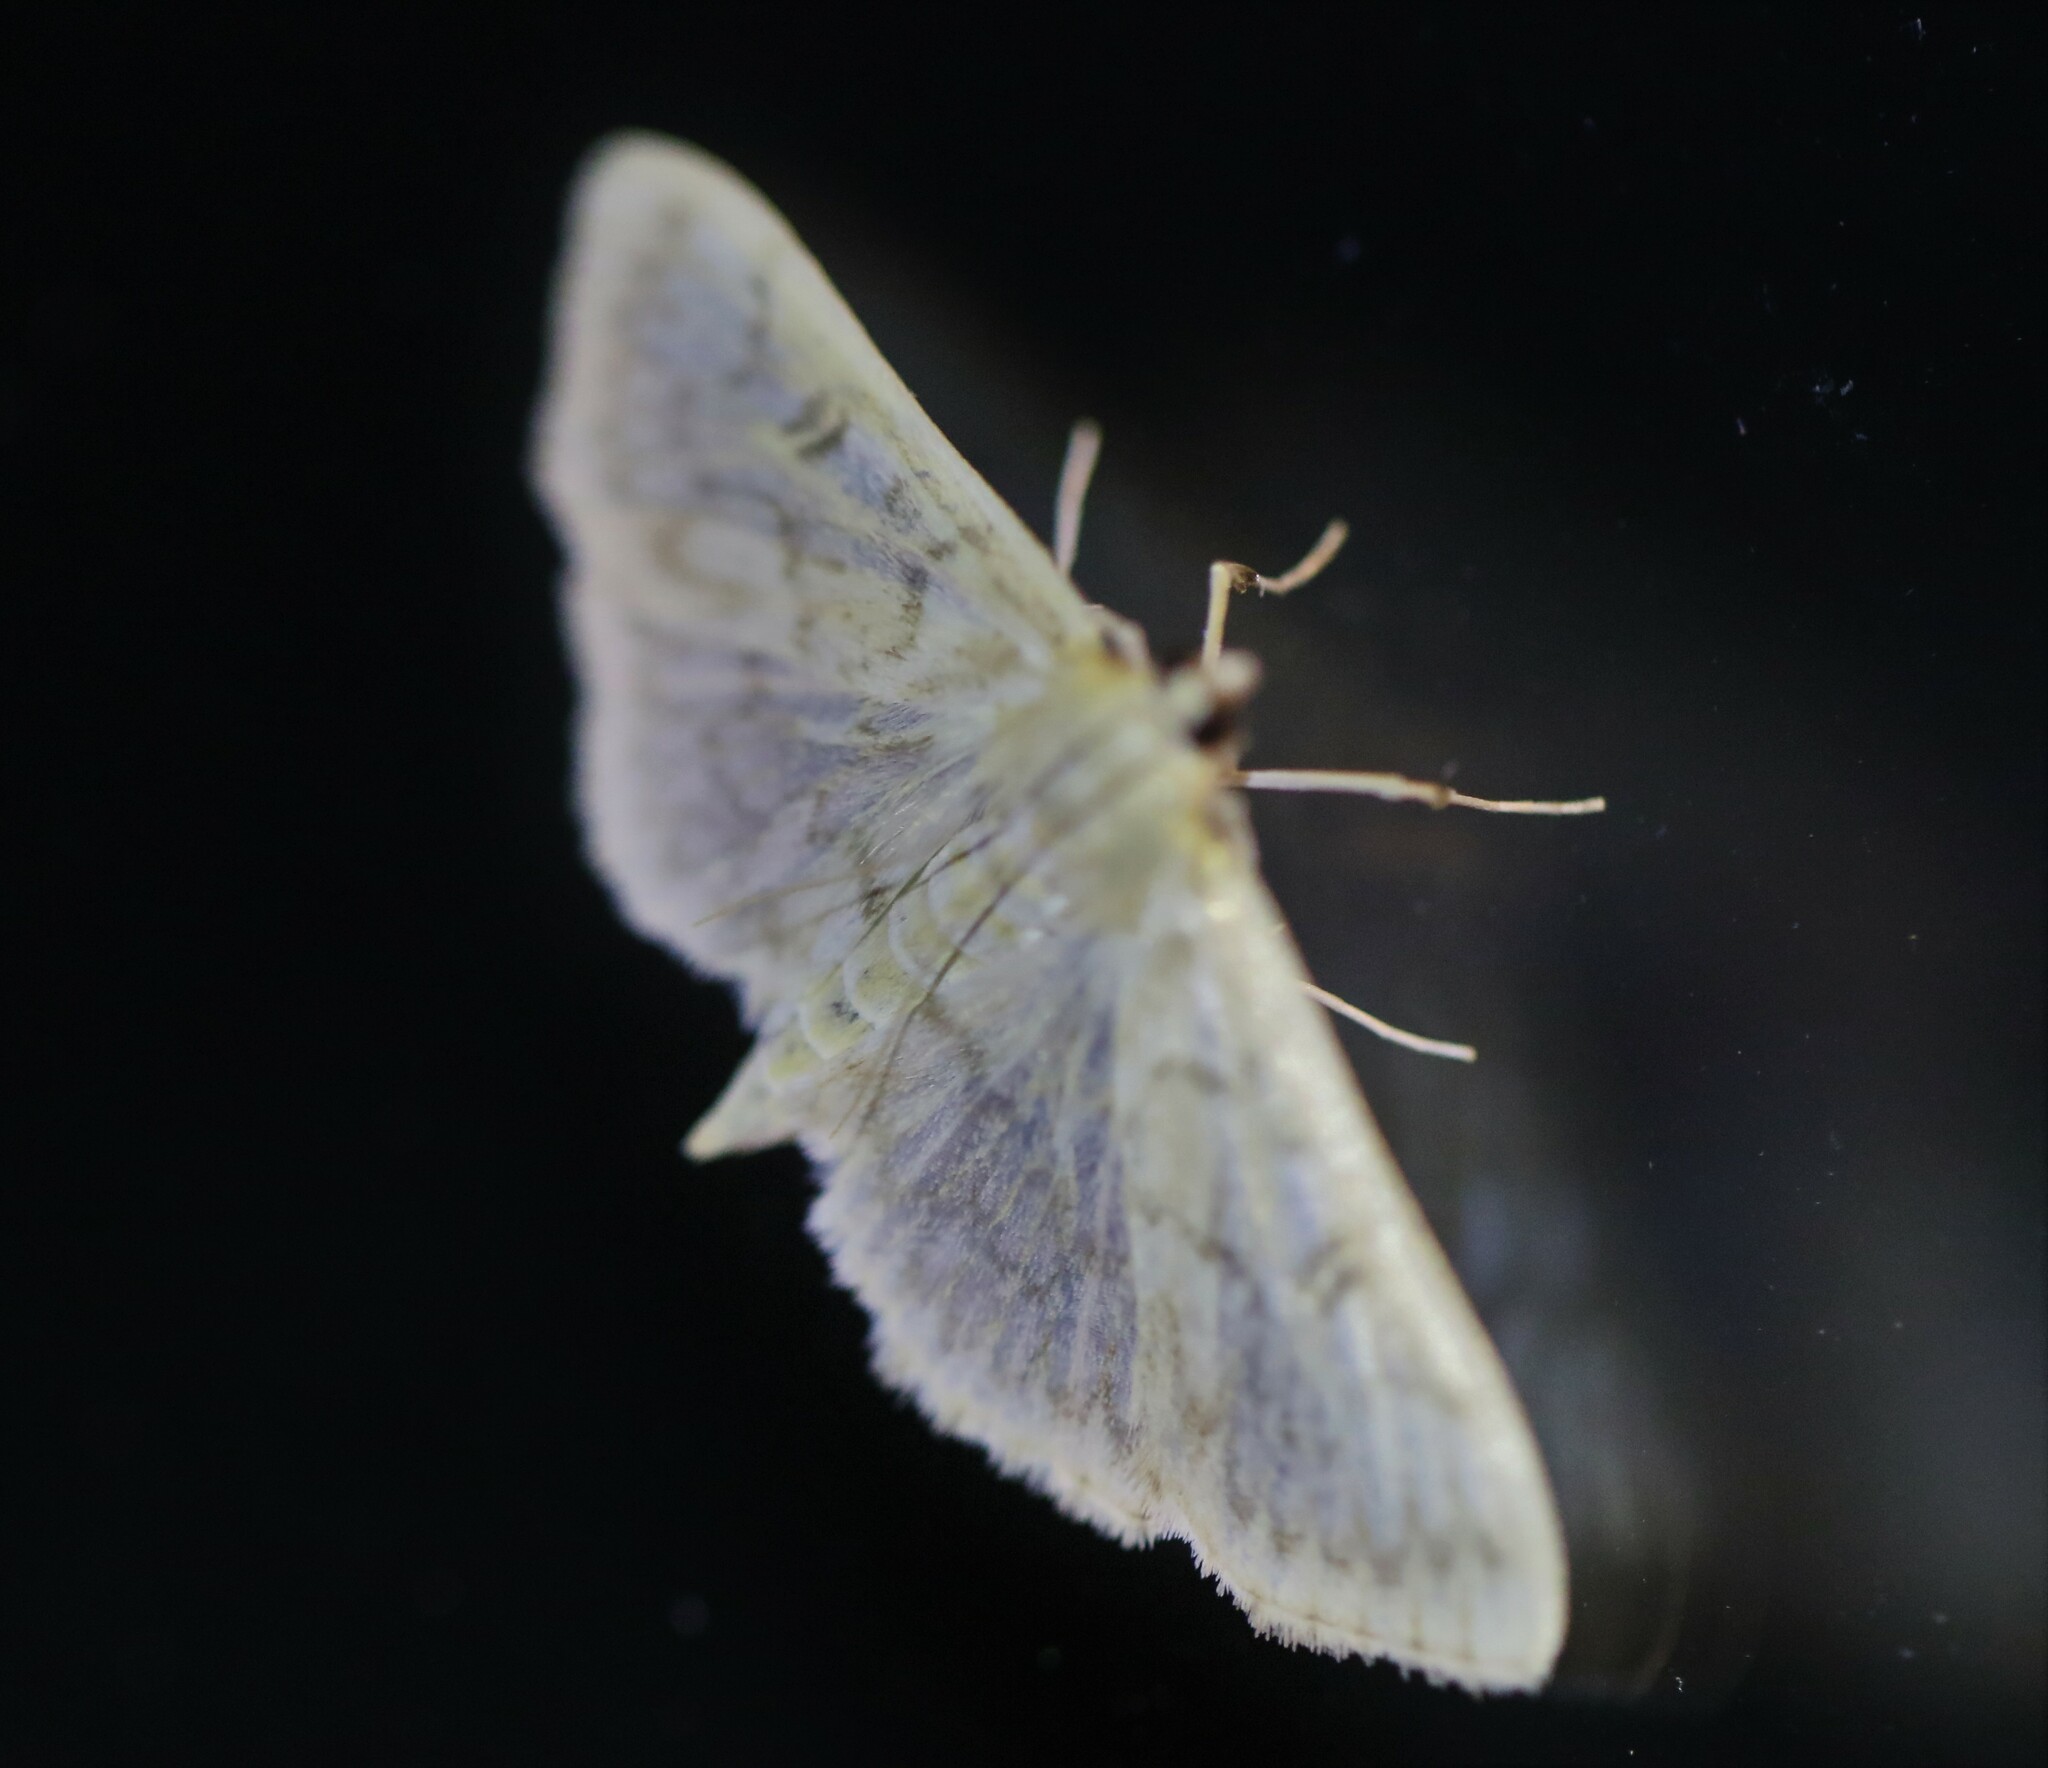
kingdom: Animalia
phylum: Arthropoda
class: Insecta
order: Lepidoptera
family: Crambidae
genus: Herpetogramma
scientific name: Herpetogramma aquilonalis
